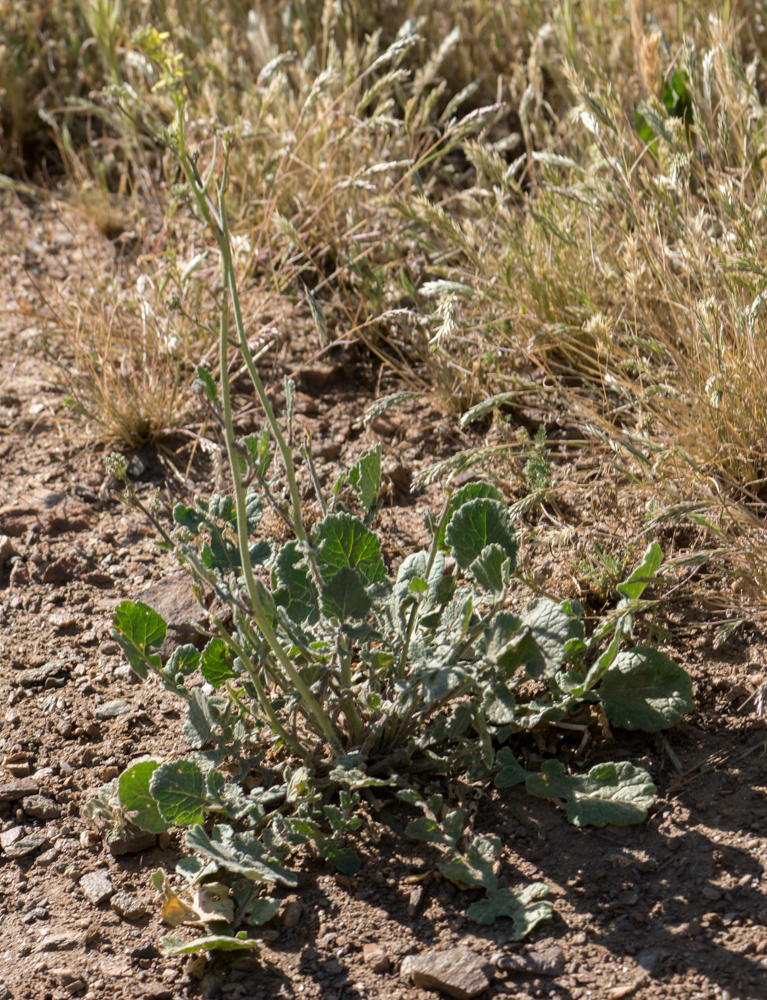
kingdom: Plantae
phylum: Tracheophyta
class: Magnoliopsida
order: Brassicales
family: Brassicaceae
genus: Hirschfeldia
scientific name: Hirschfeldia incana
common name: Hoary mustard
